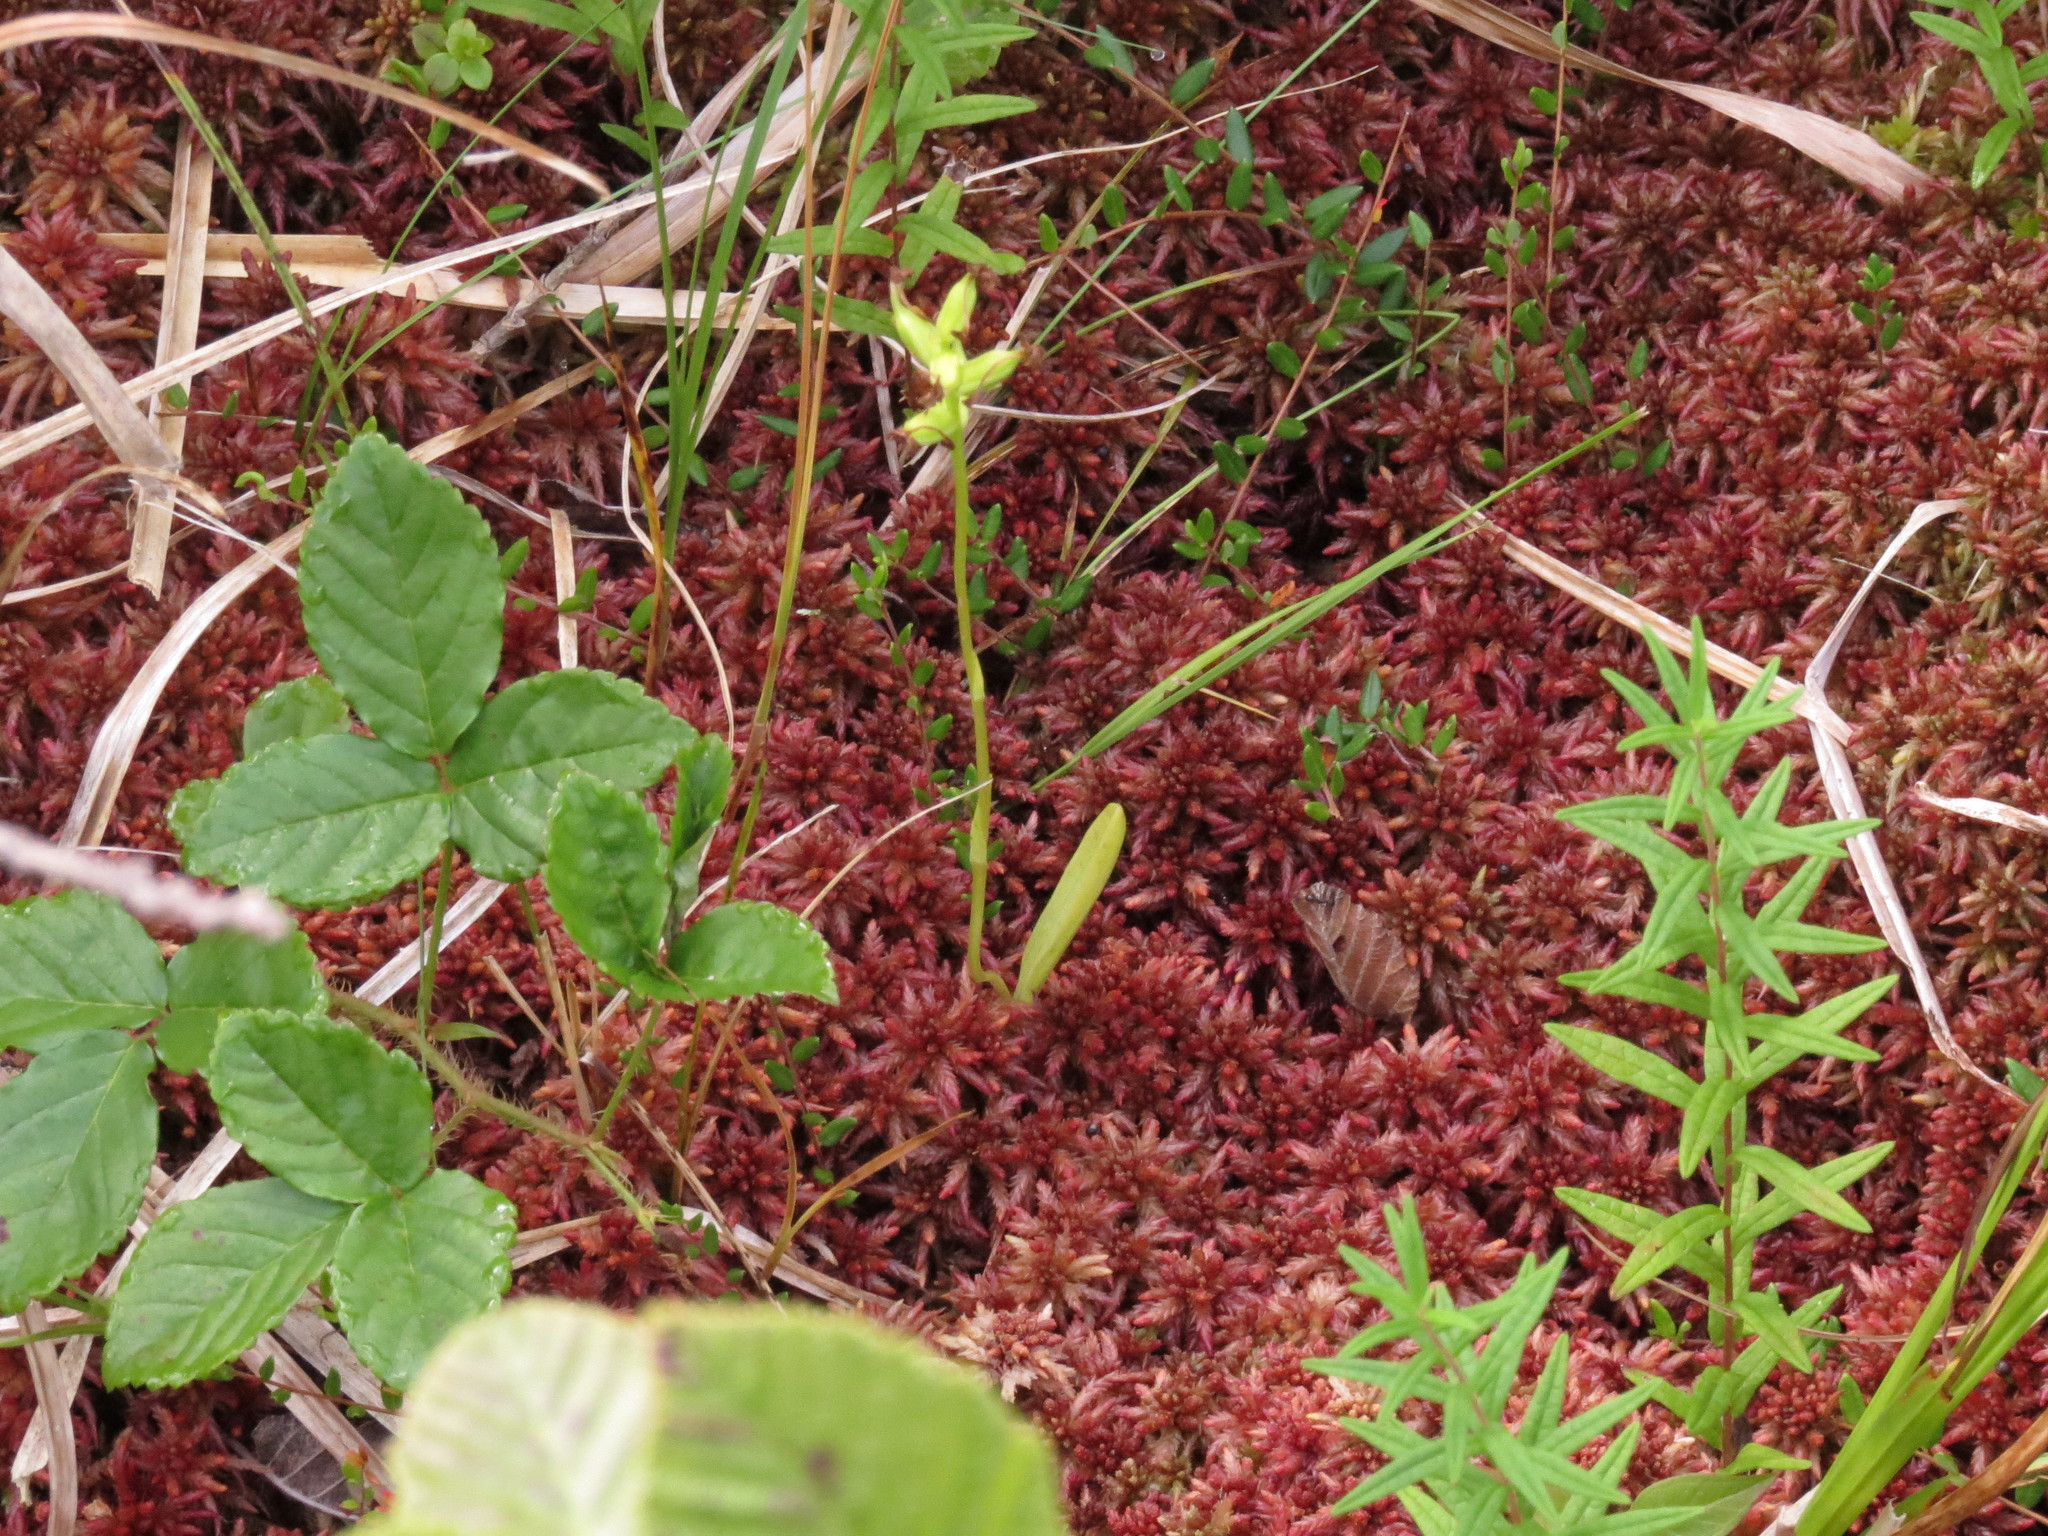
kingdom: Plantae
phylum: Tracheophyta
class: Liliopsida
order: Asparagales
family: Orchidaceae
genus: Platanthera
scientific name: Platanthera clavellata
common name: Club-spur orchid
